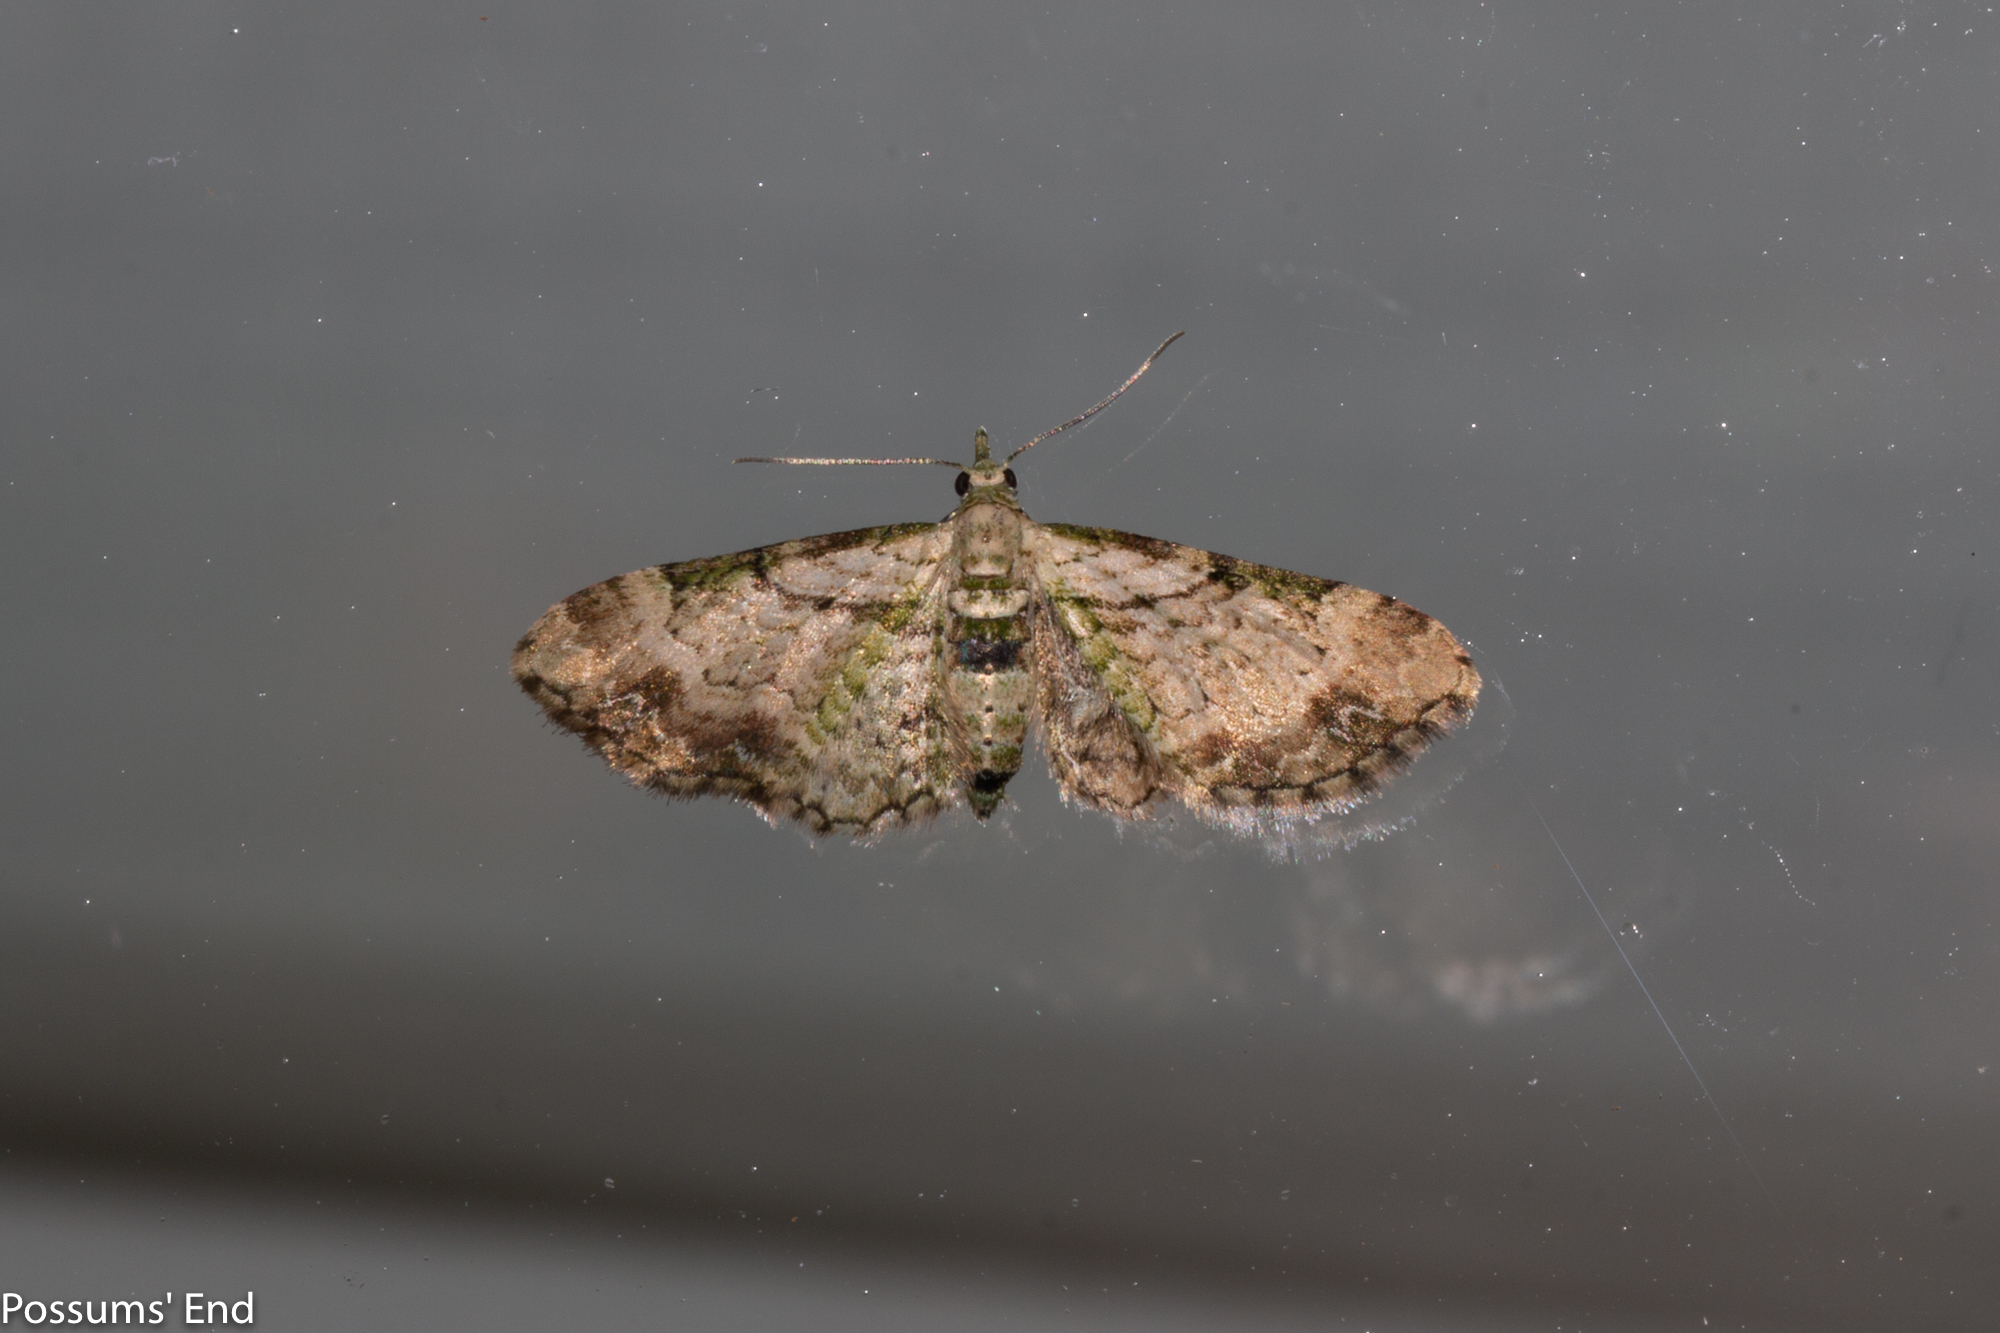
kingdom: Animalia
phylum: Arthropoda
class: Insecta
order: Lepidoptera
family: Geometridae
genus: Chloroclystis
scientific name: Chloroclystis
